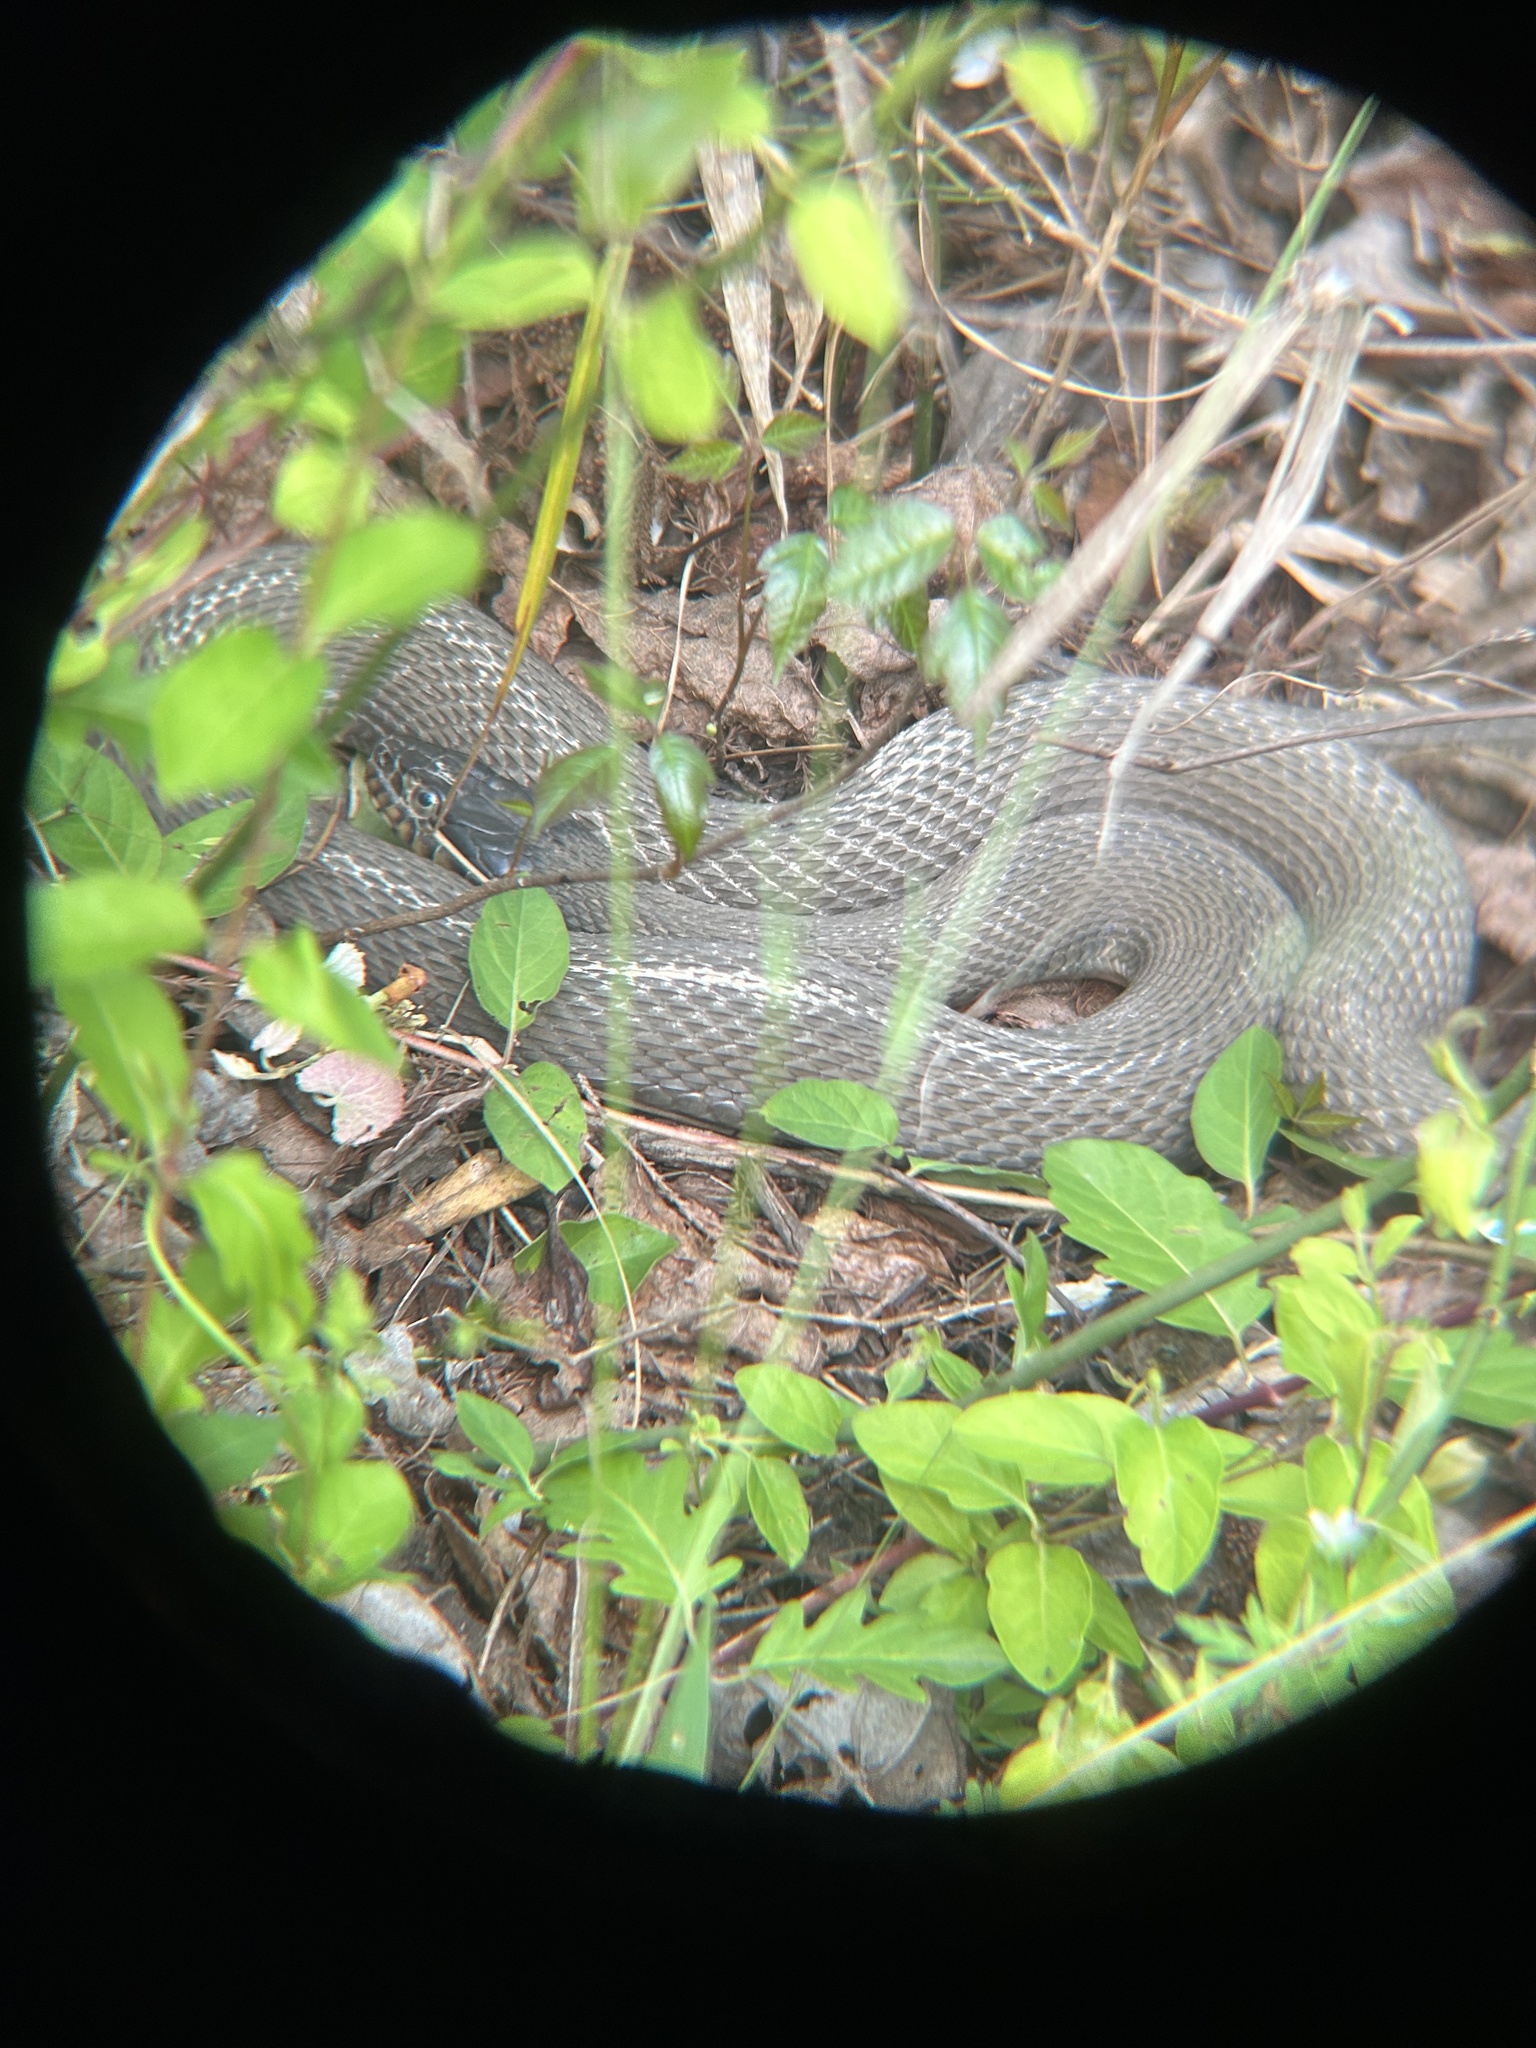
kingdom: Animalia
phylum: Chordata
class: Squamata
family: Colubridae
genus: Nerodia
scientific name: Nerodia erythrogaster
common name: Plainbelly water snake
